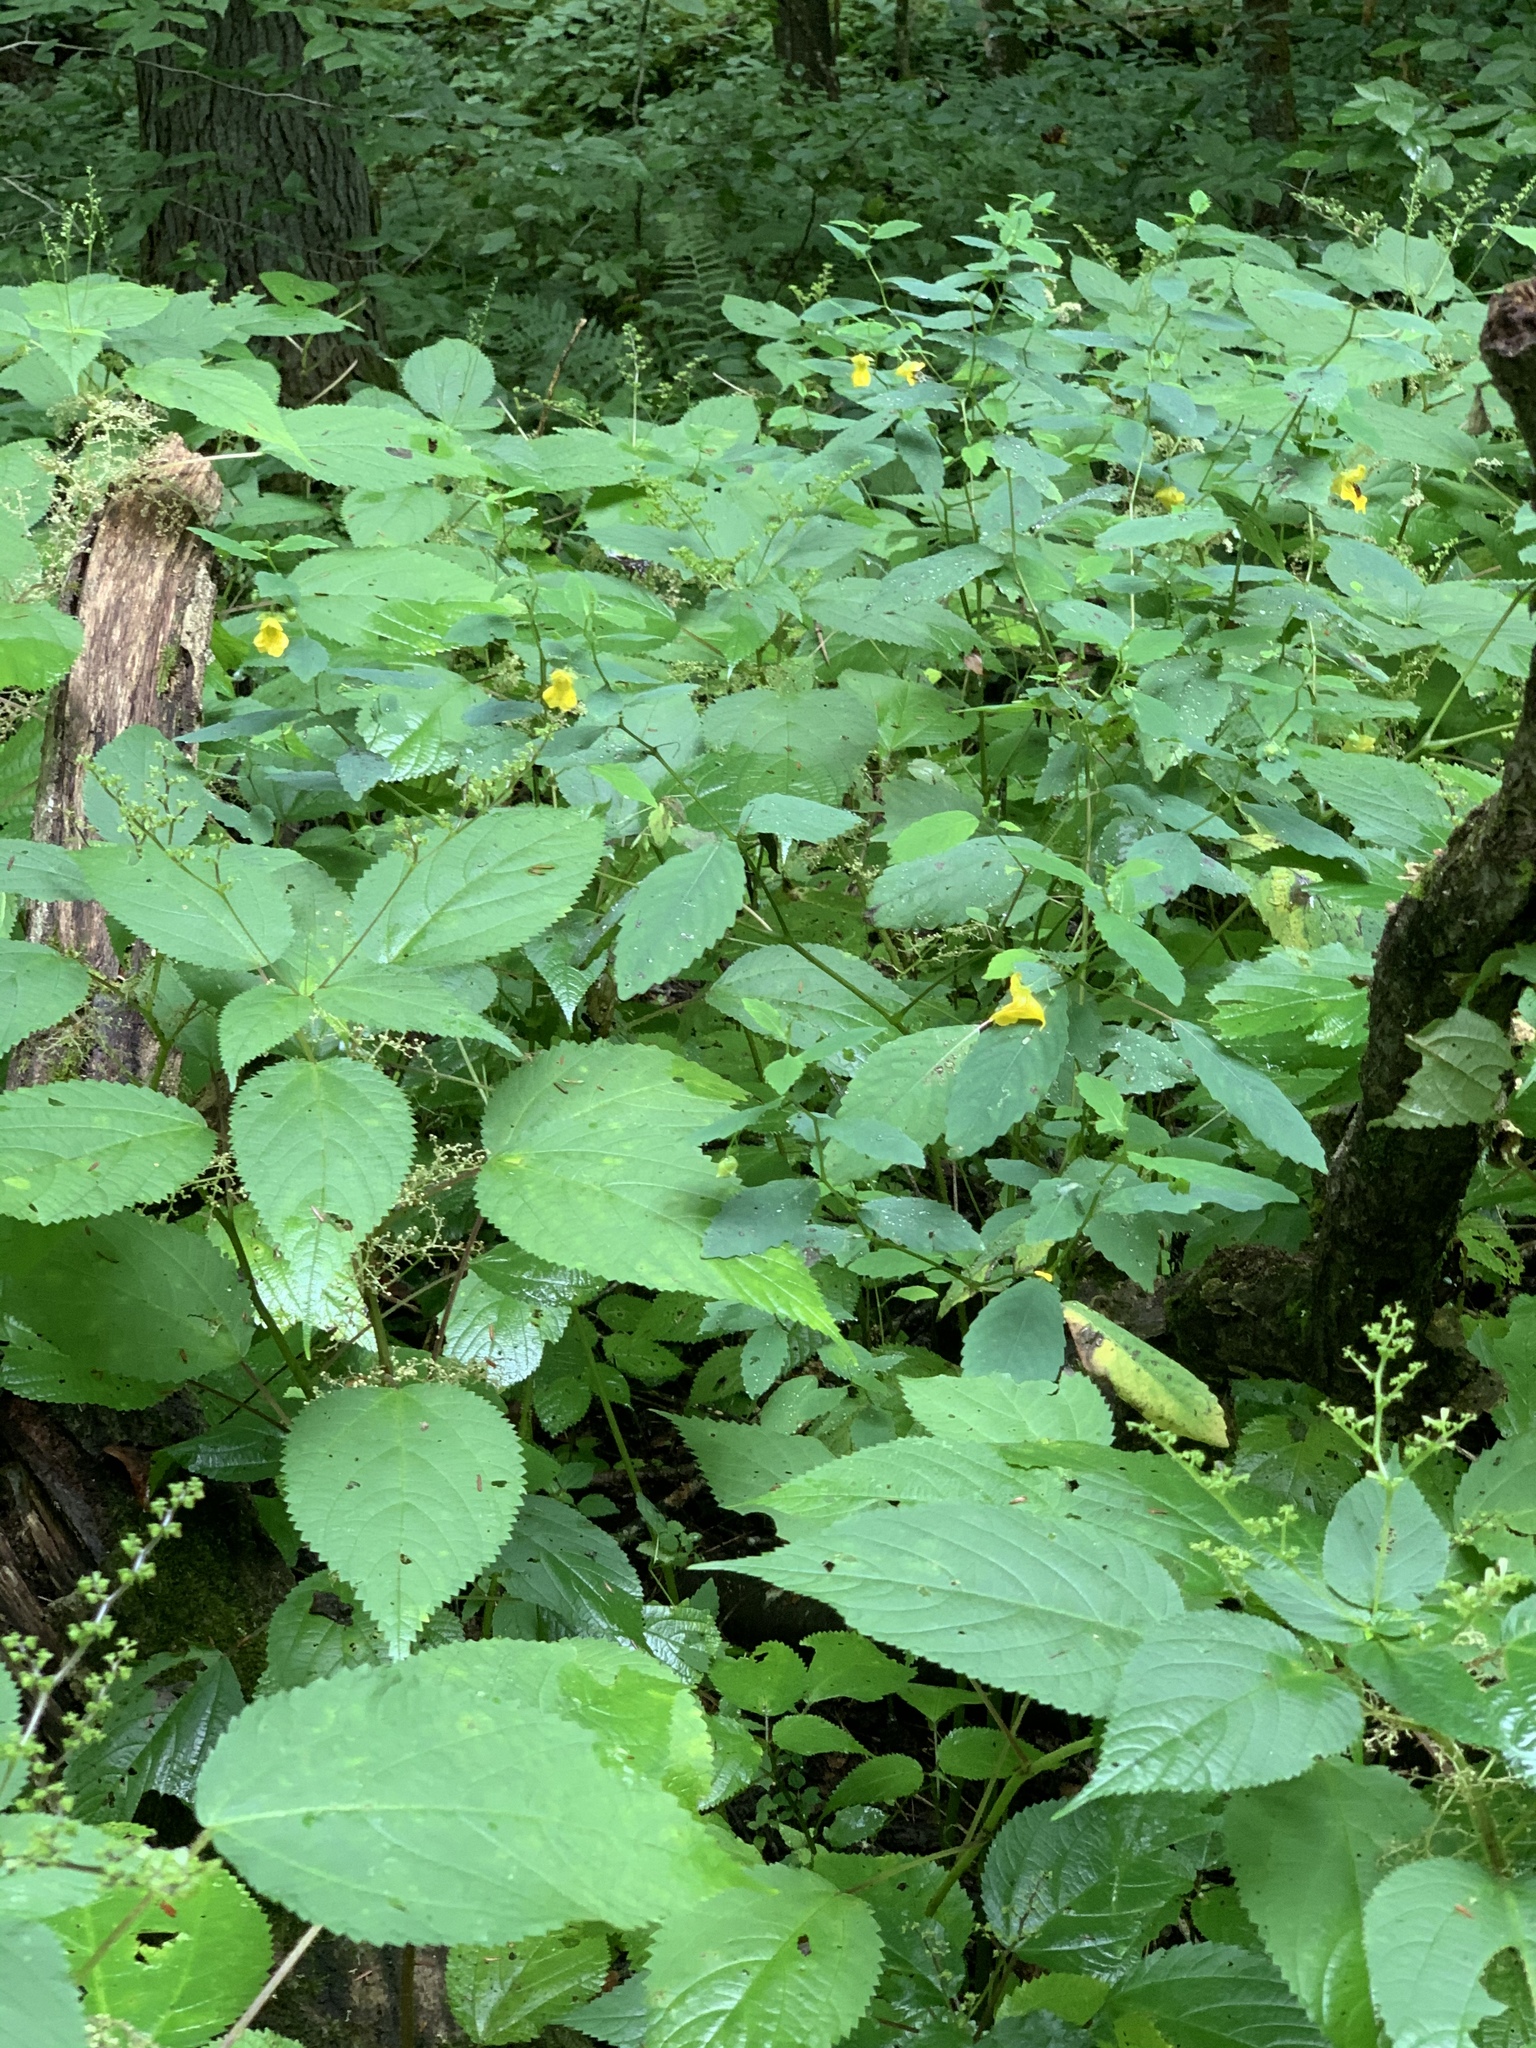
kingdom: Plantae
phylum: Tracheophyta
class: Magnoliopsida
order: Ericales
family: Balsaminaceae
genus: Impatiens
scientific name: Impatiens pallida
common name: Pale snapweed
